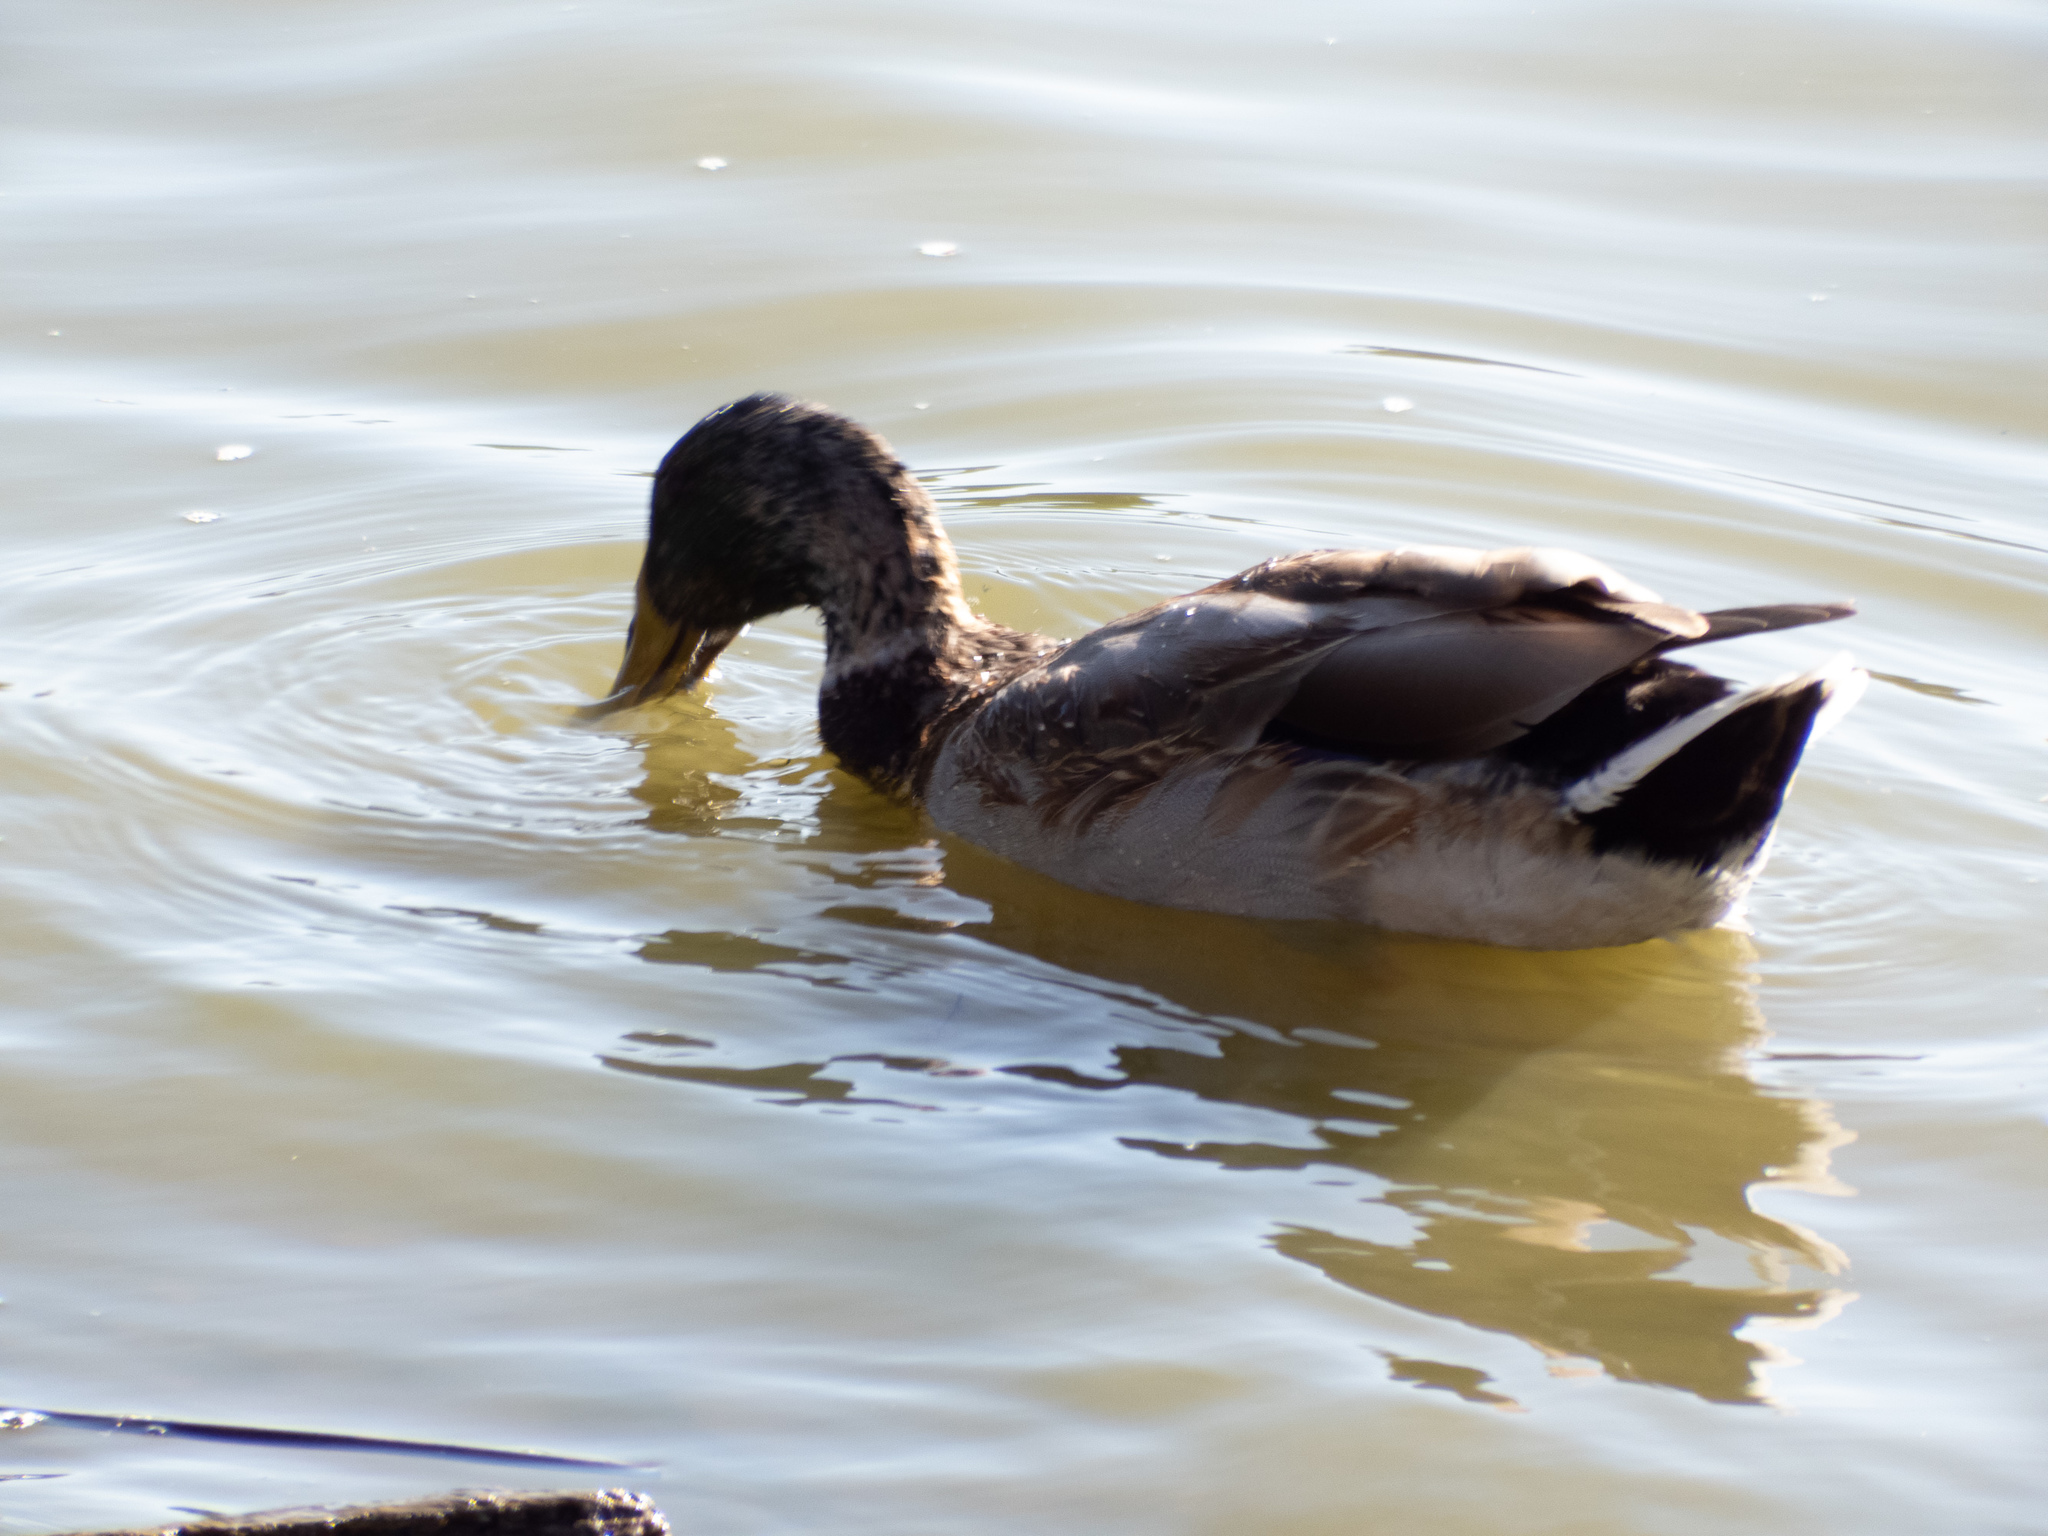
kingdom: Animalia
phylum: Chordata
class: Aves
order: Anseriformes
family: Anatidae
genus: Anas
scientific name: Anas platyrhynchos
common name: Mallard
